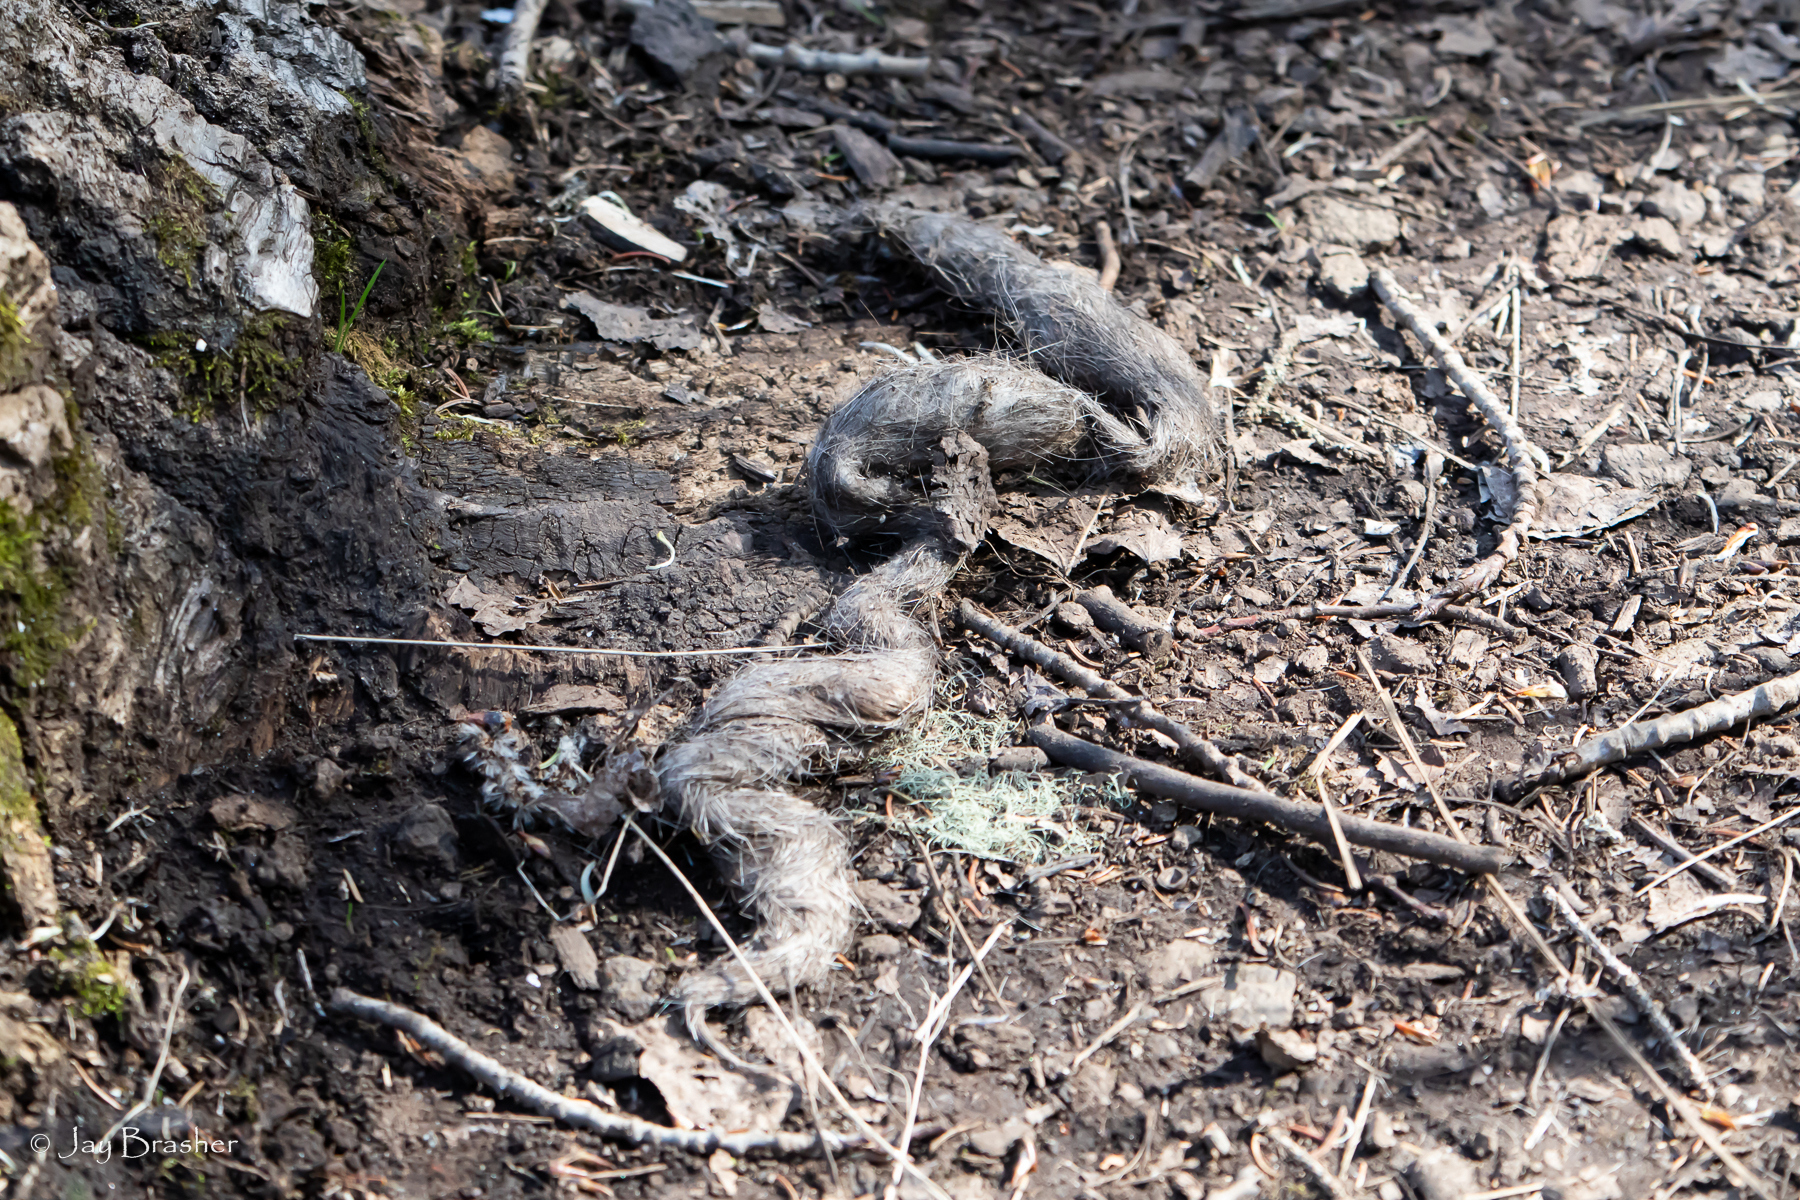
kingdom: Animalia
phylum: Chordata
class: Mammalia
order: Carnivora
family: Canidae
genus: Canis
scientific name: Canis lupus
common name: Gray wolf
